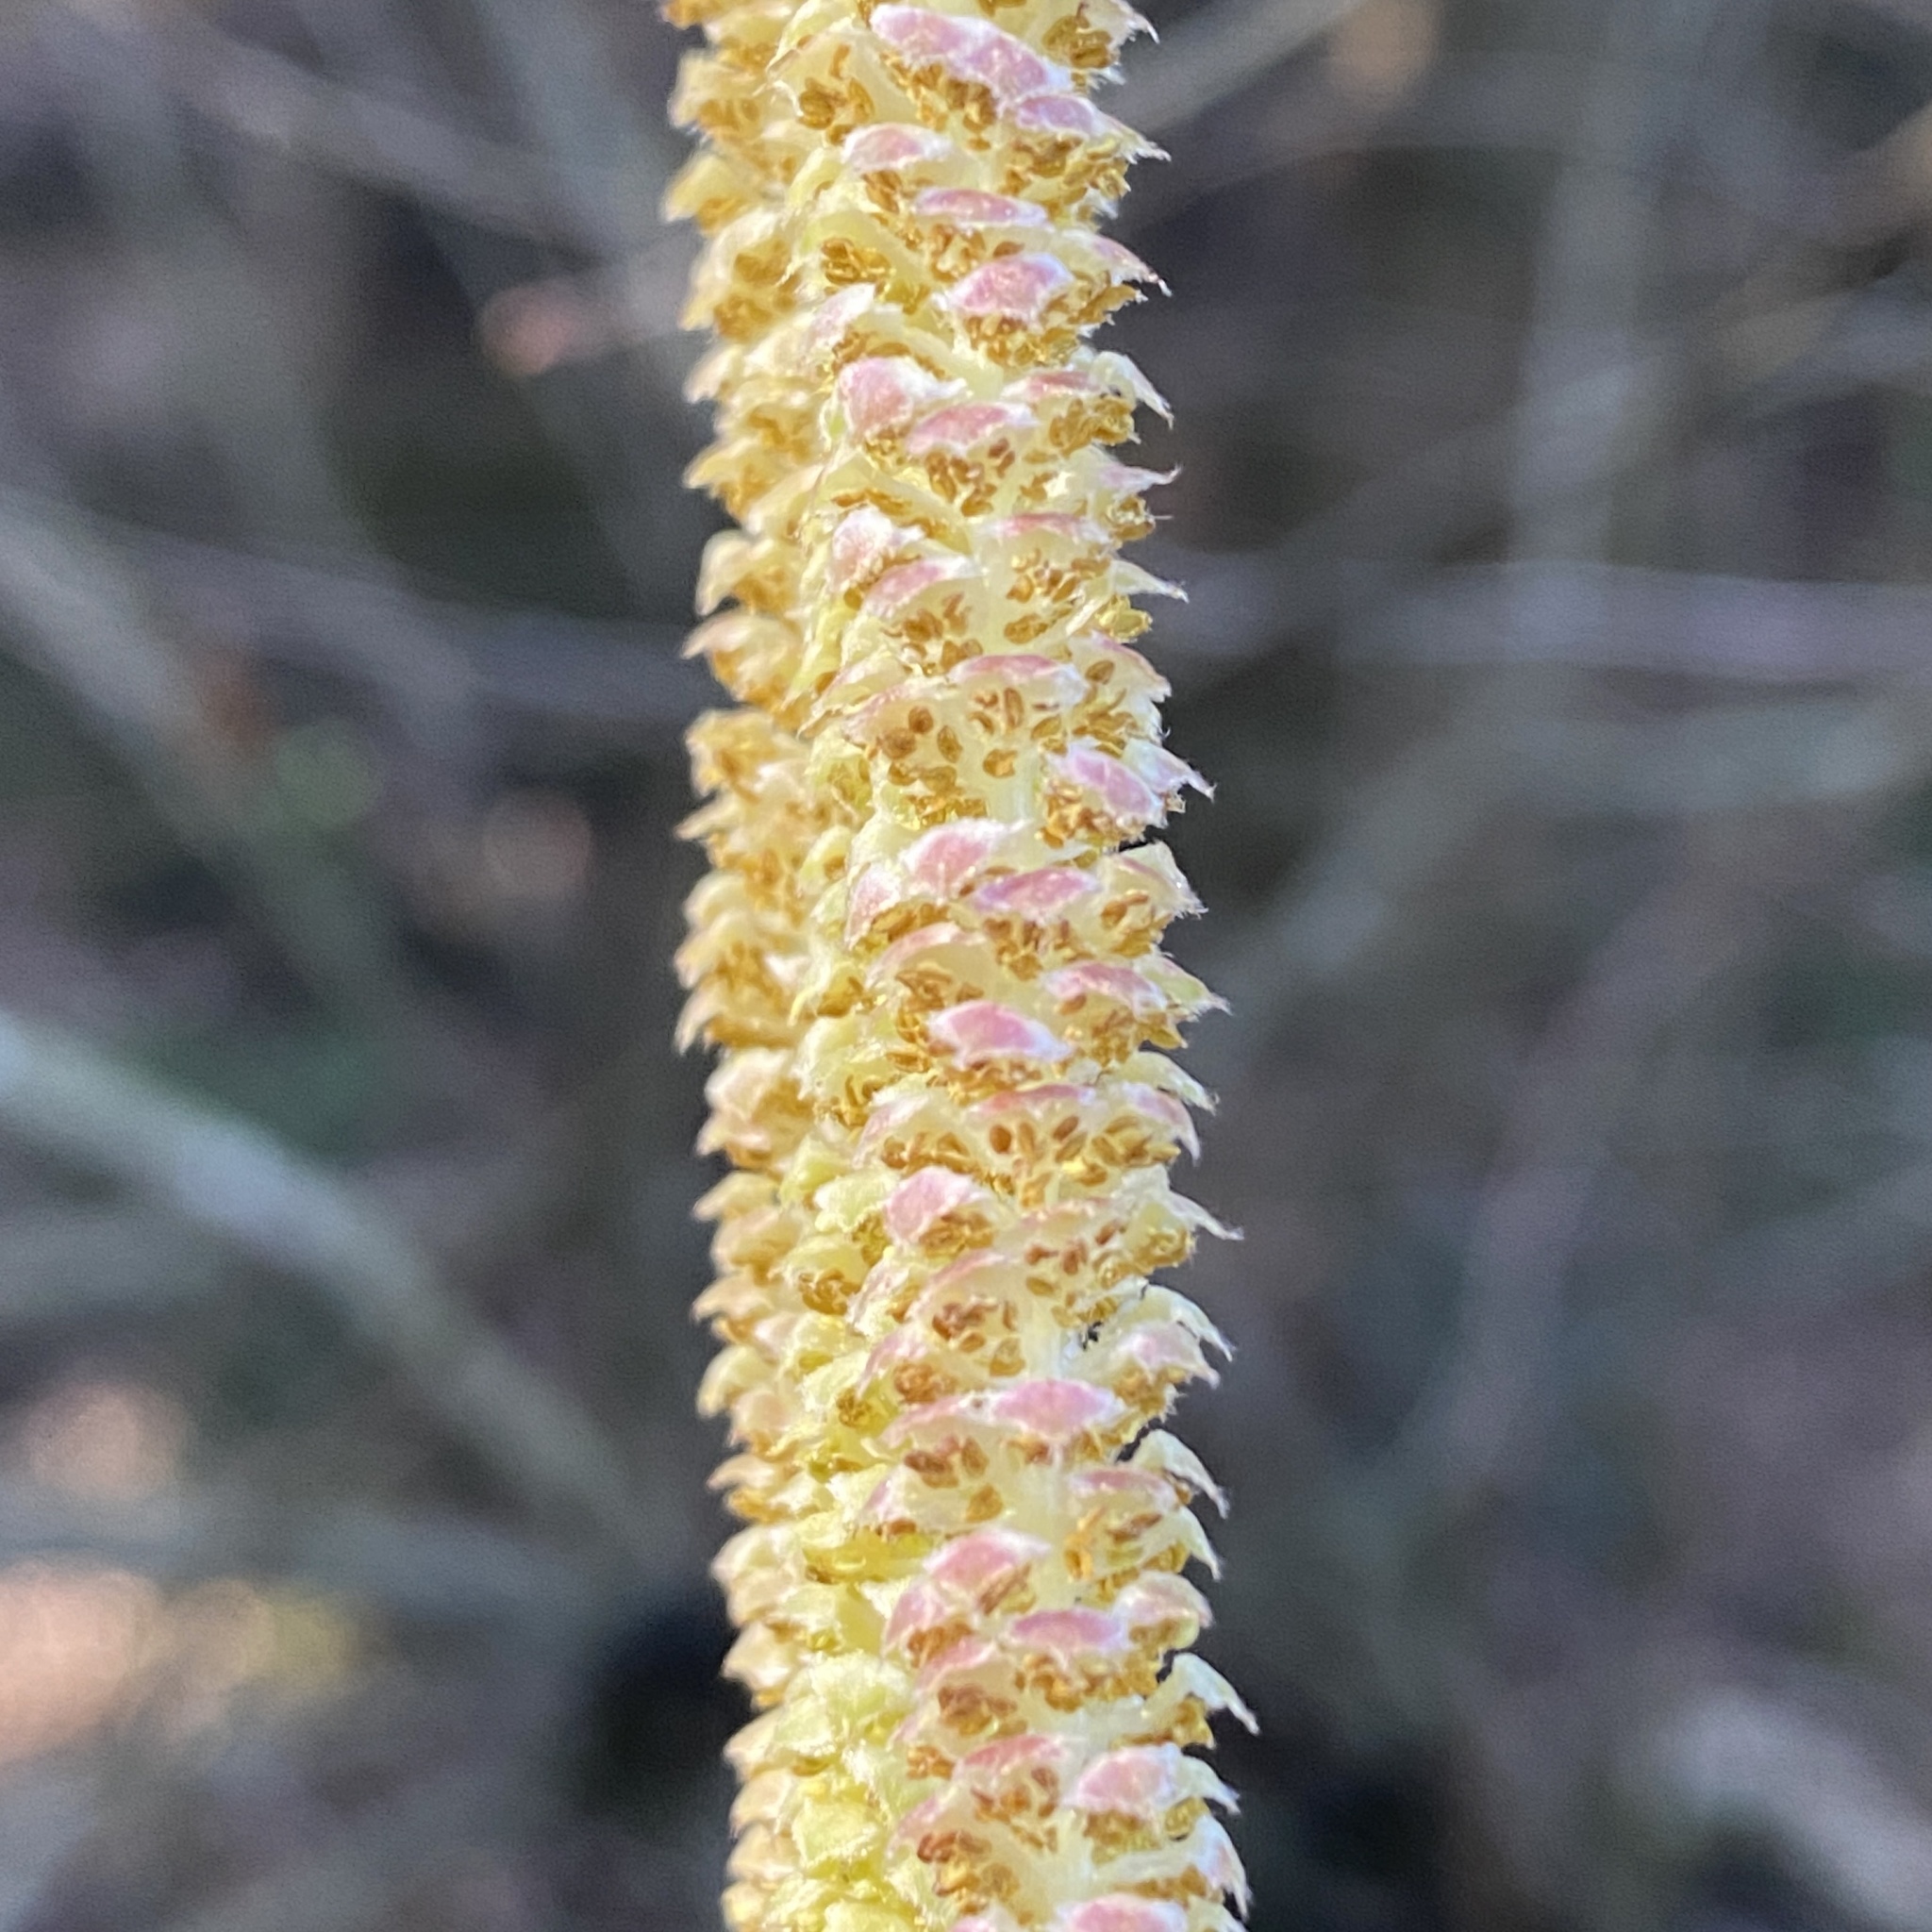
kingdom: Plantae
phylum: Tracheophyta
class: Magnoliopsida
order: Fagales
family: Betulaceae
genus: Corylus
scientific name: Corylus avellana
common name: European hazel
